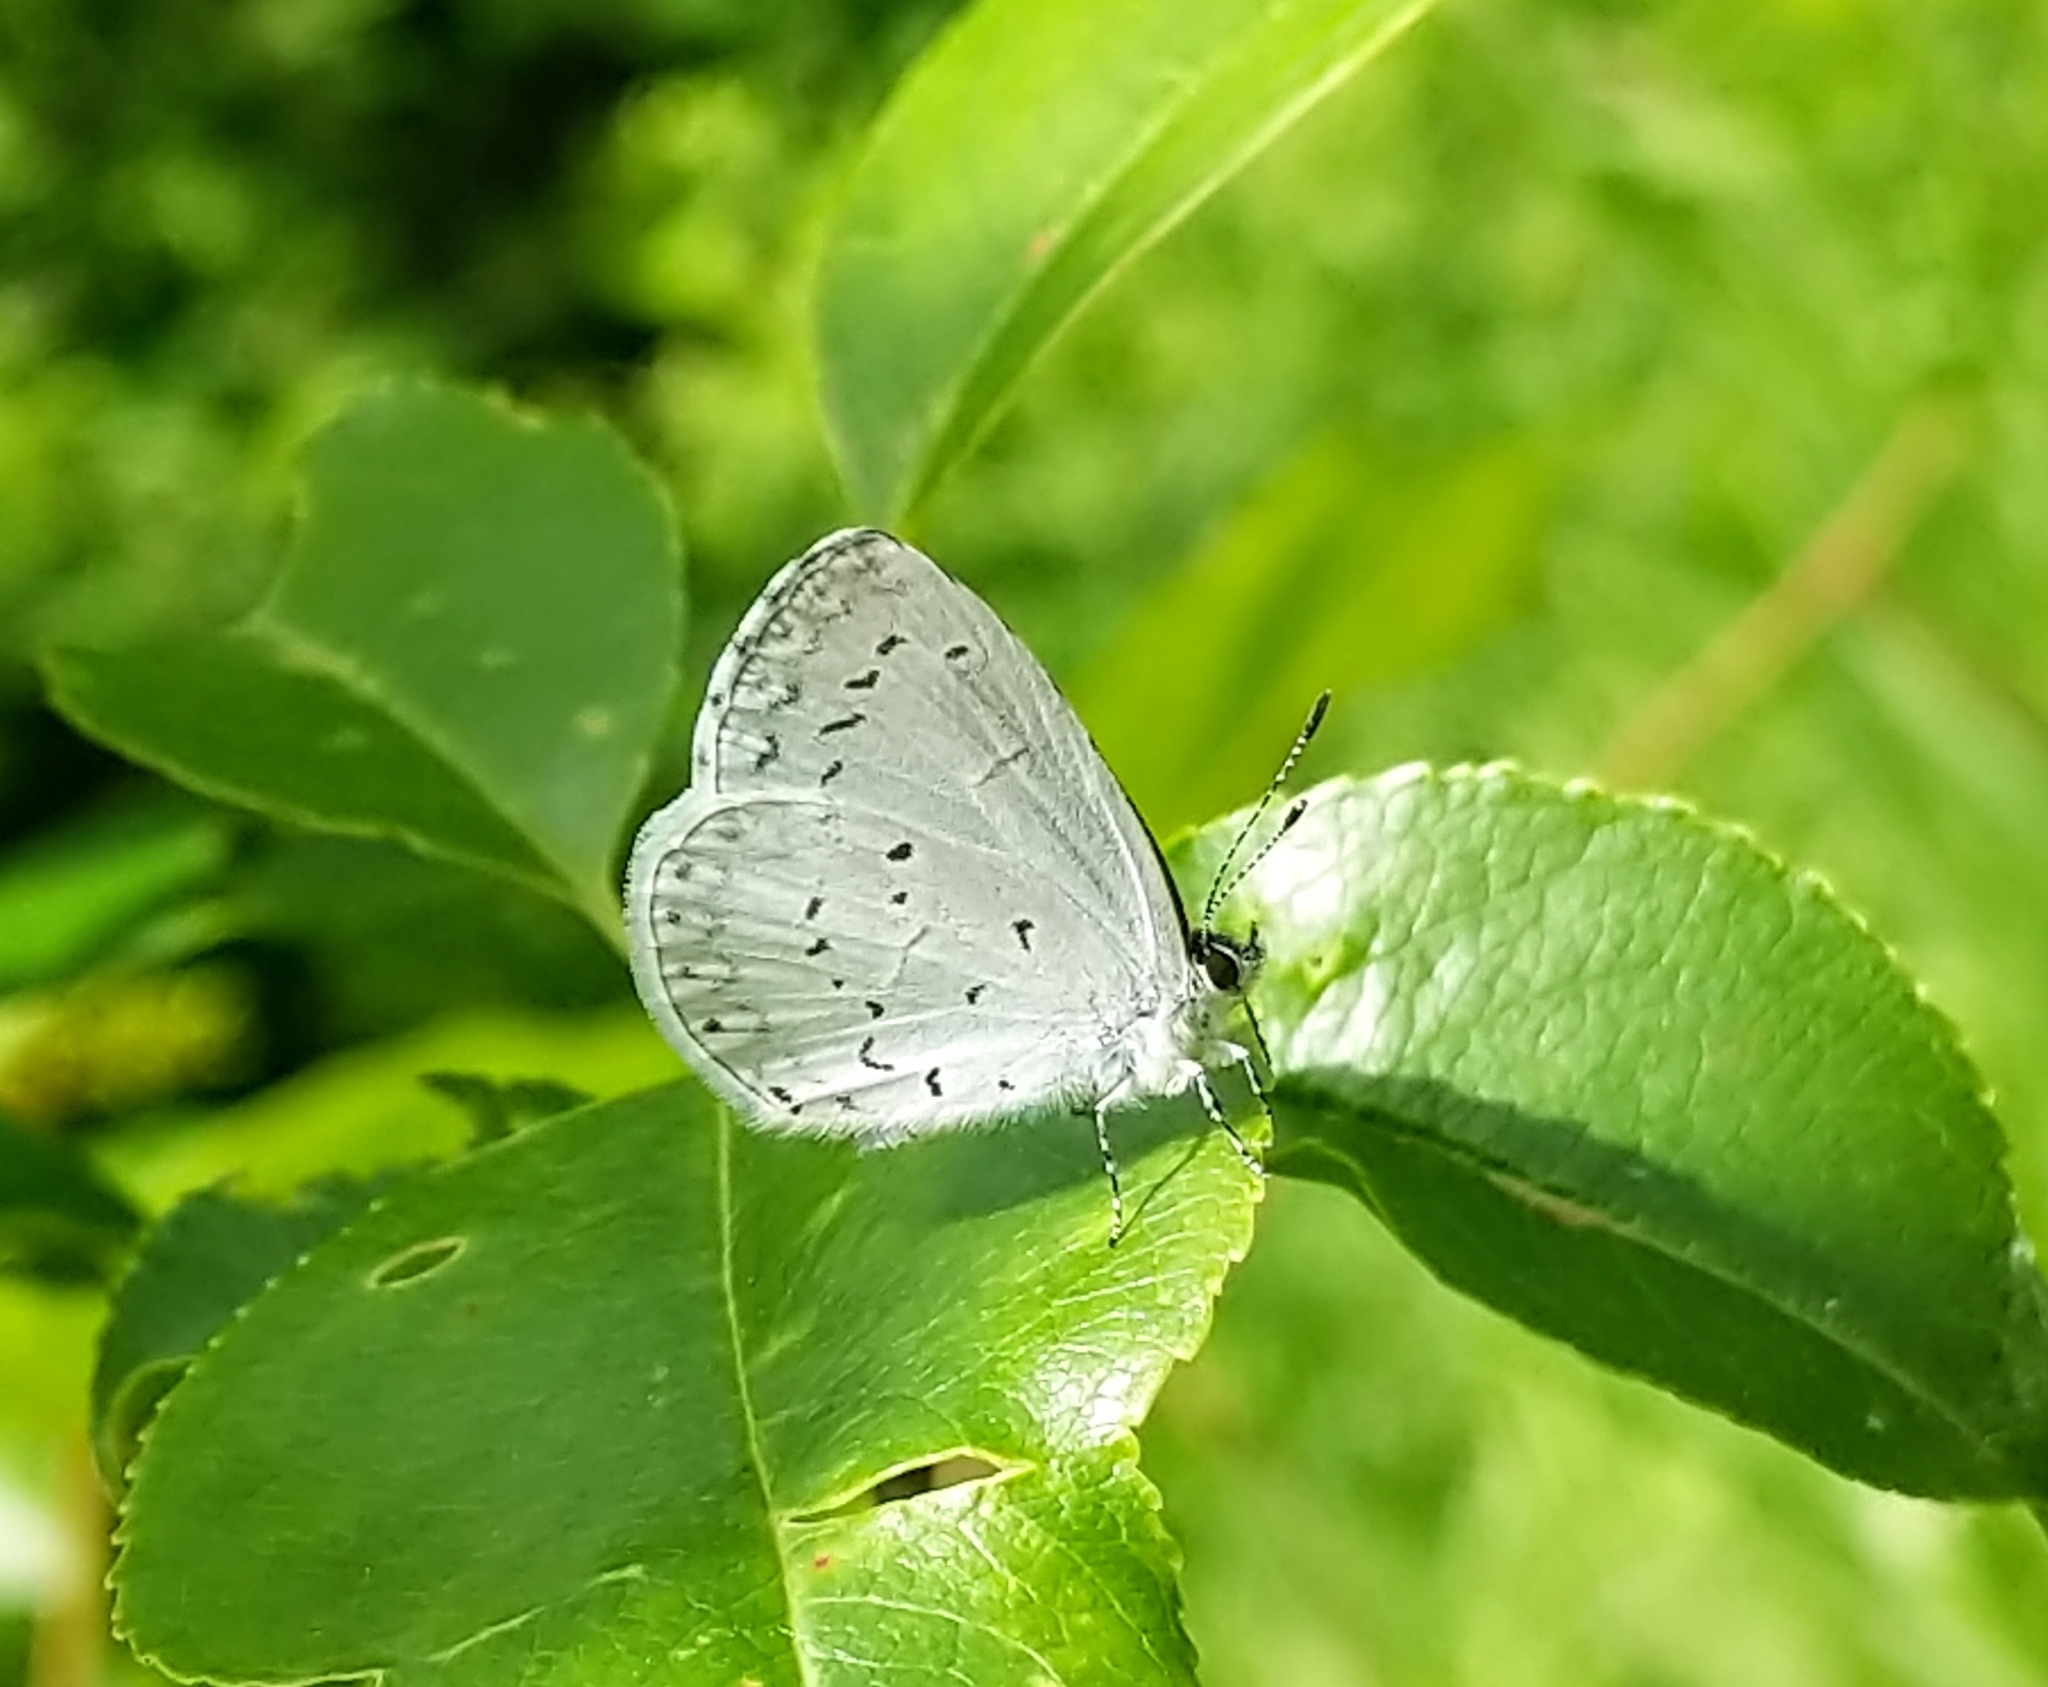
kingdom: Animalia
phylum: Arthropoda
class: Insecta
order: Lepidoptera
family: Lycaenidae
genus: Cyaniris
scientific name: Cyaniris neglecta
